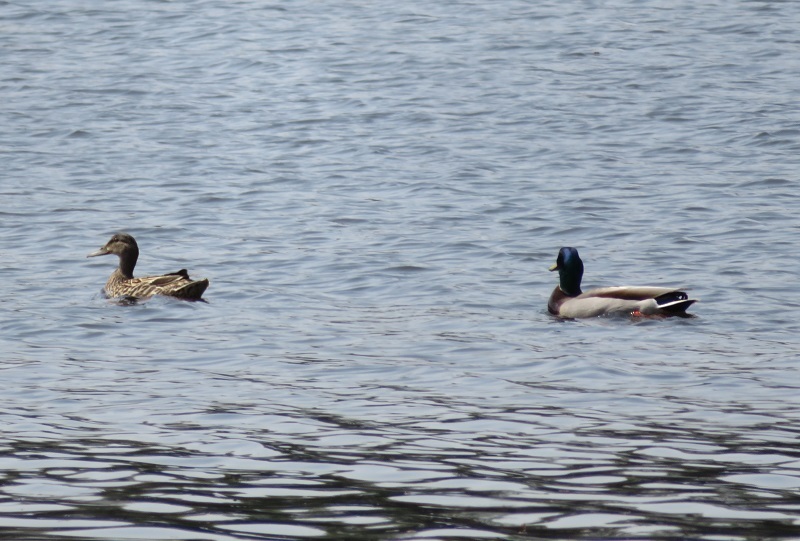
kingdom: Animalia
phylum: Chordata
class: Aves
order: Anseriformes
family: Anatidae
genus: Anas
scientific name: Anas platyrhynchos
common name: Mallard
